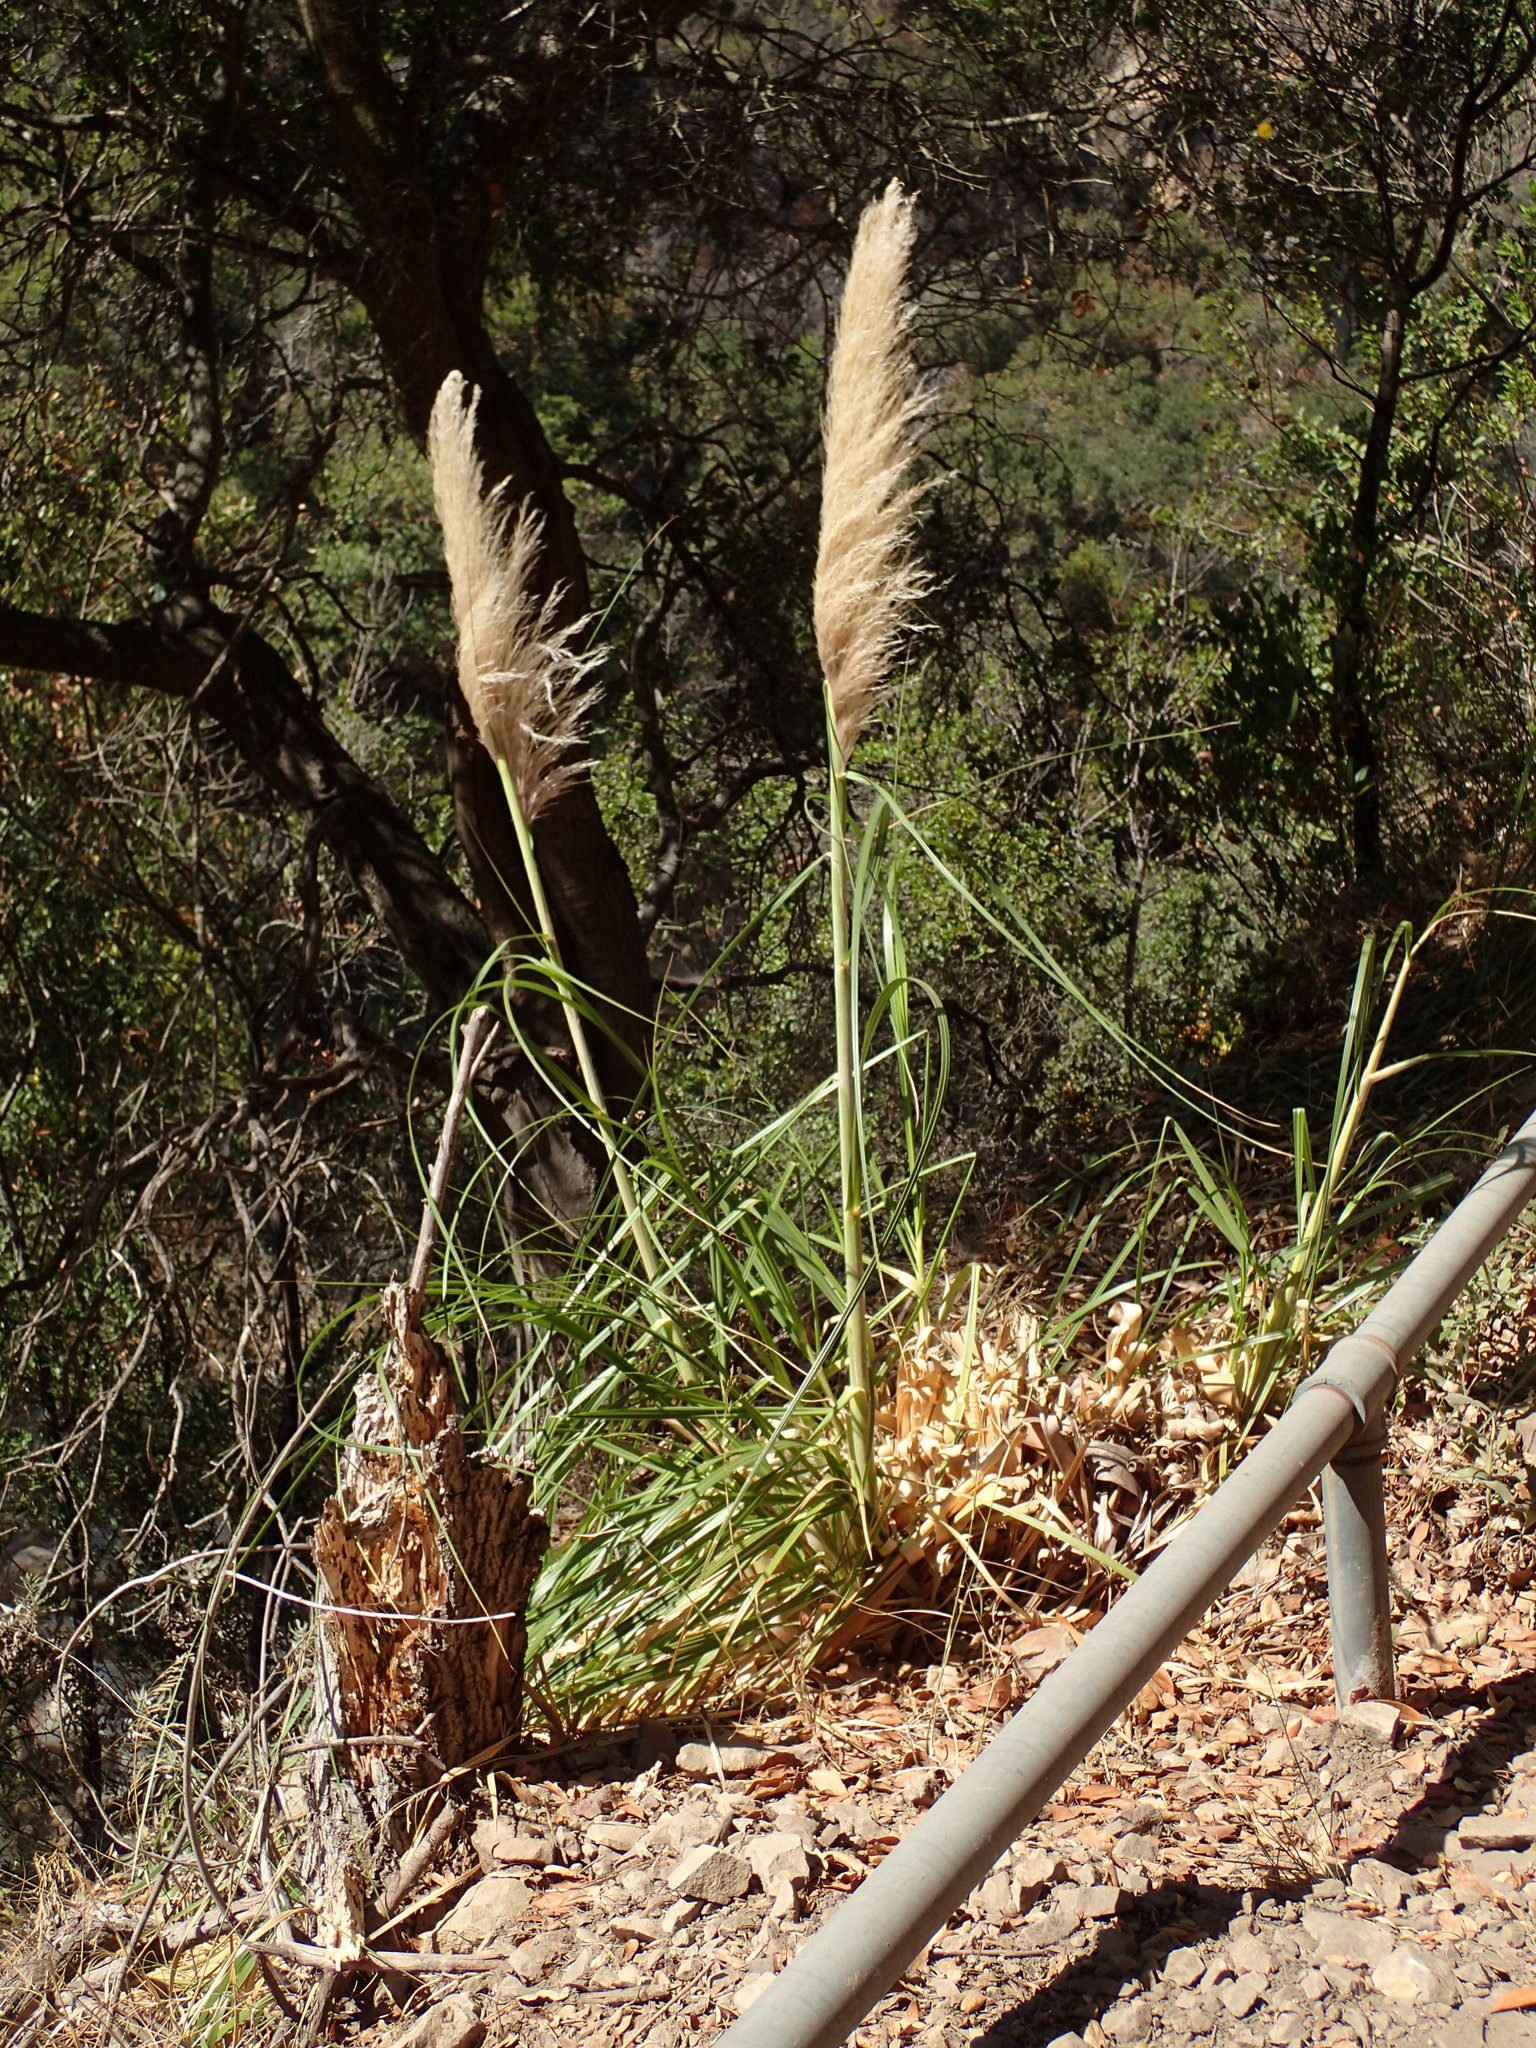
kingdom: Plantae
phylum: Tracheophyta
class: Liliopsida
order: Poales
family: Poaceae
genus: Cortaderia
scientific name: Cortaderia selloana
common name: Uruguayan pampas grass
